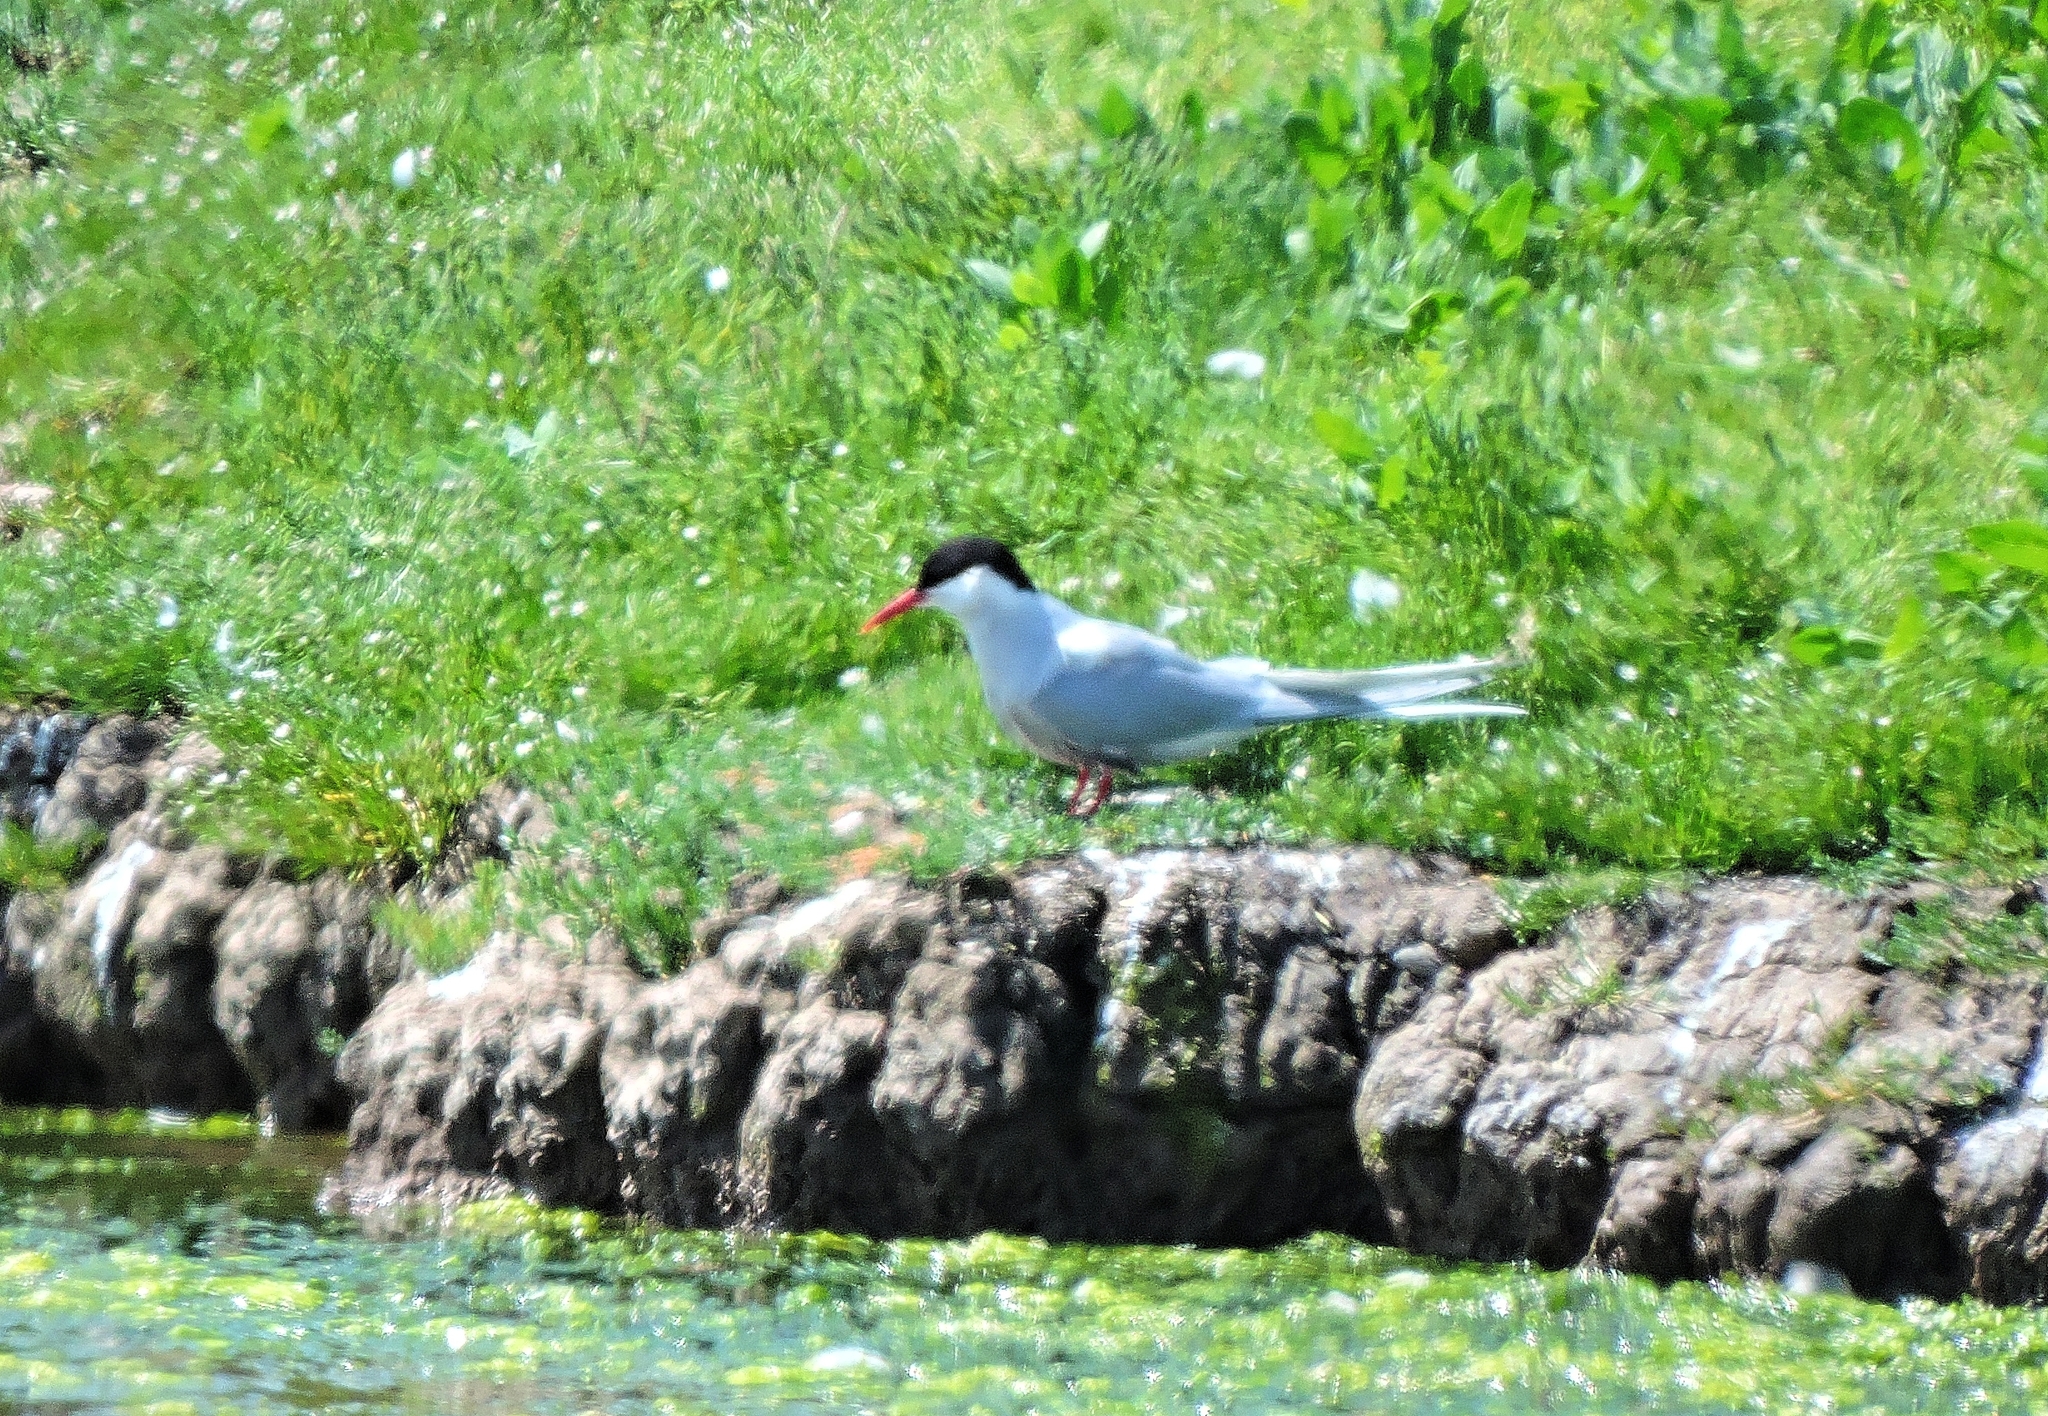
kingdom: Animalia
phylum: Chordata
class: Aves
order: Charadriiformes
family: Laridae
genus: Sterna
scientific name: Sterna paradisaea
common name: Arctic tern
